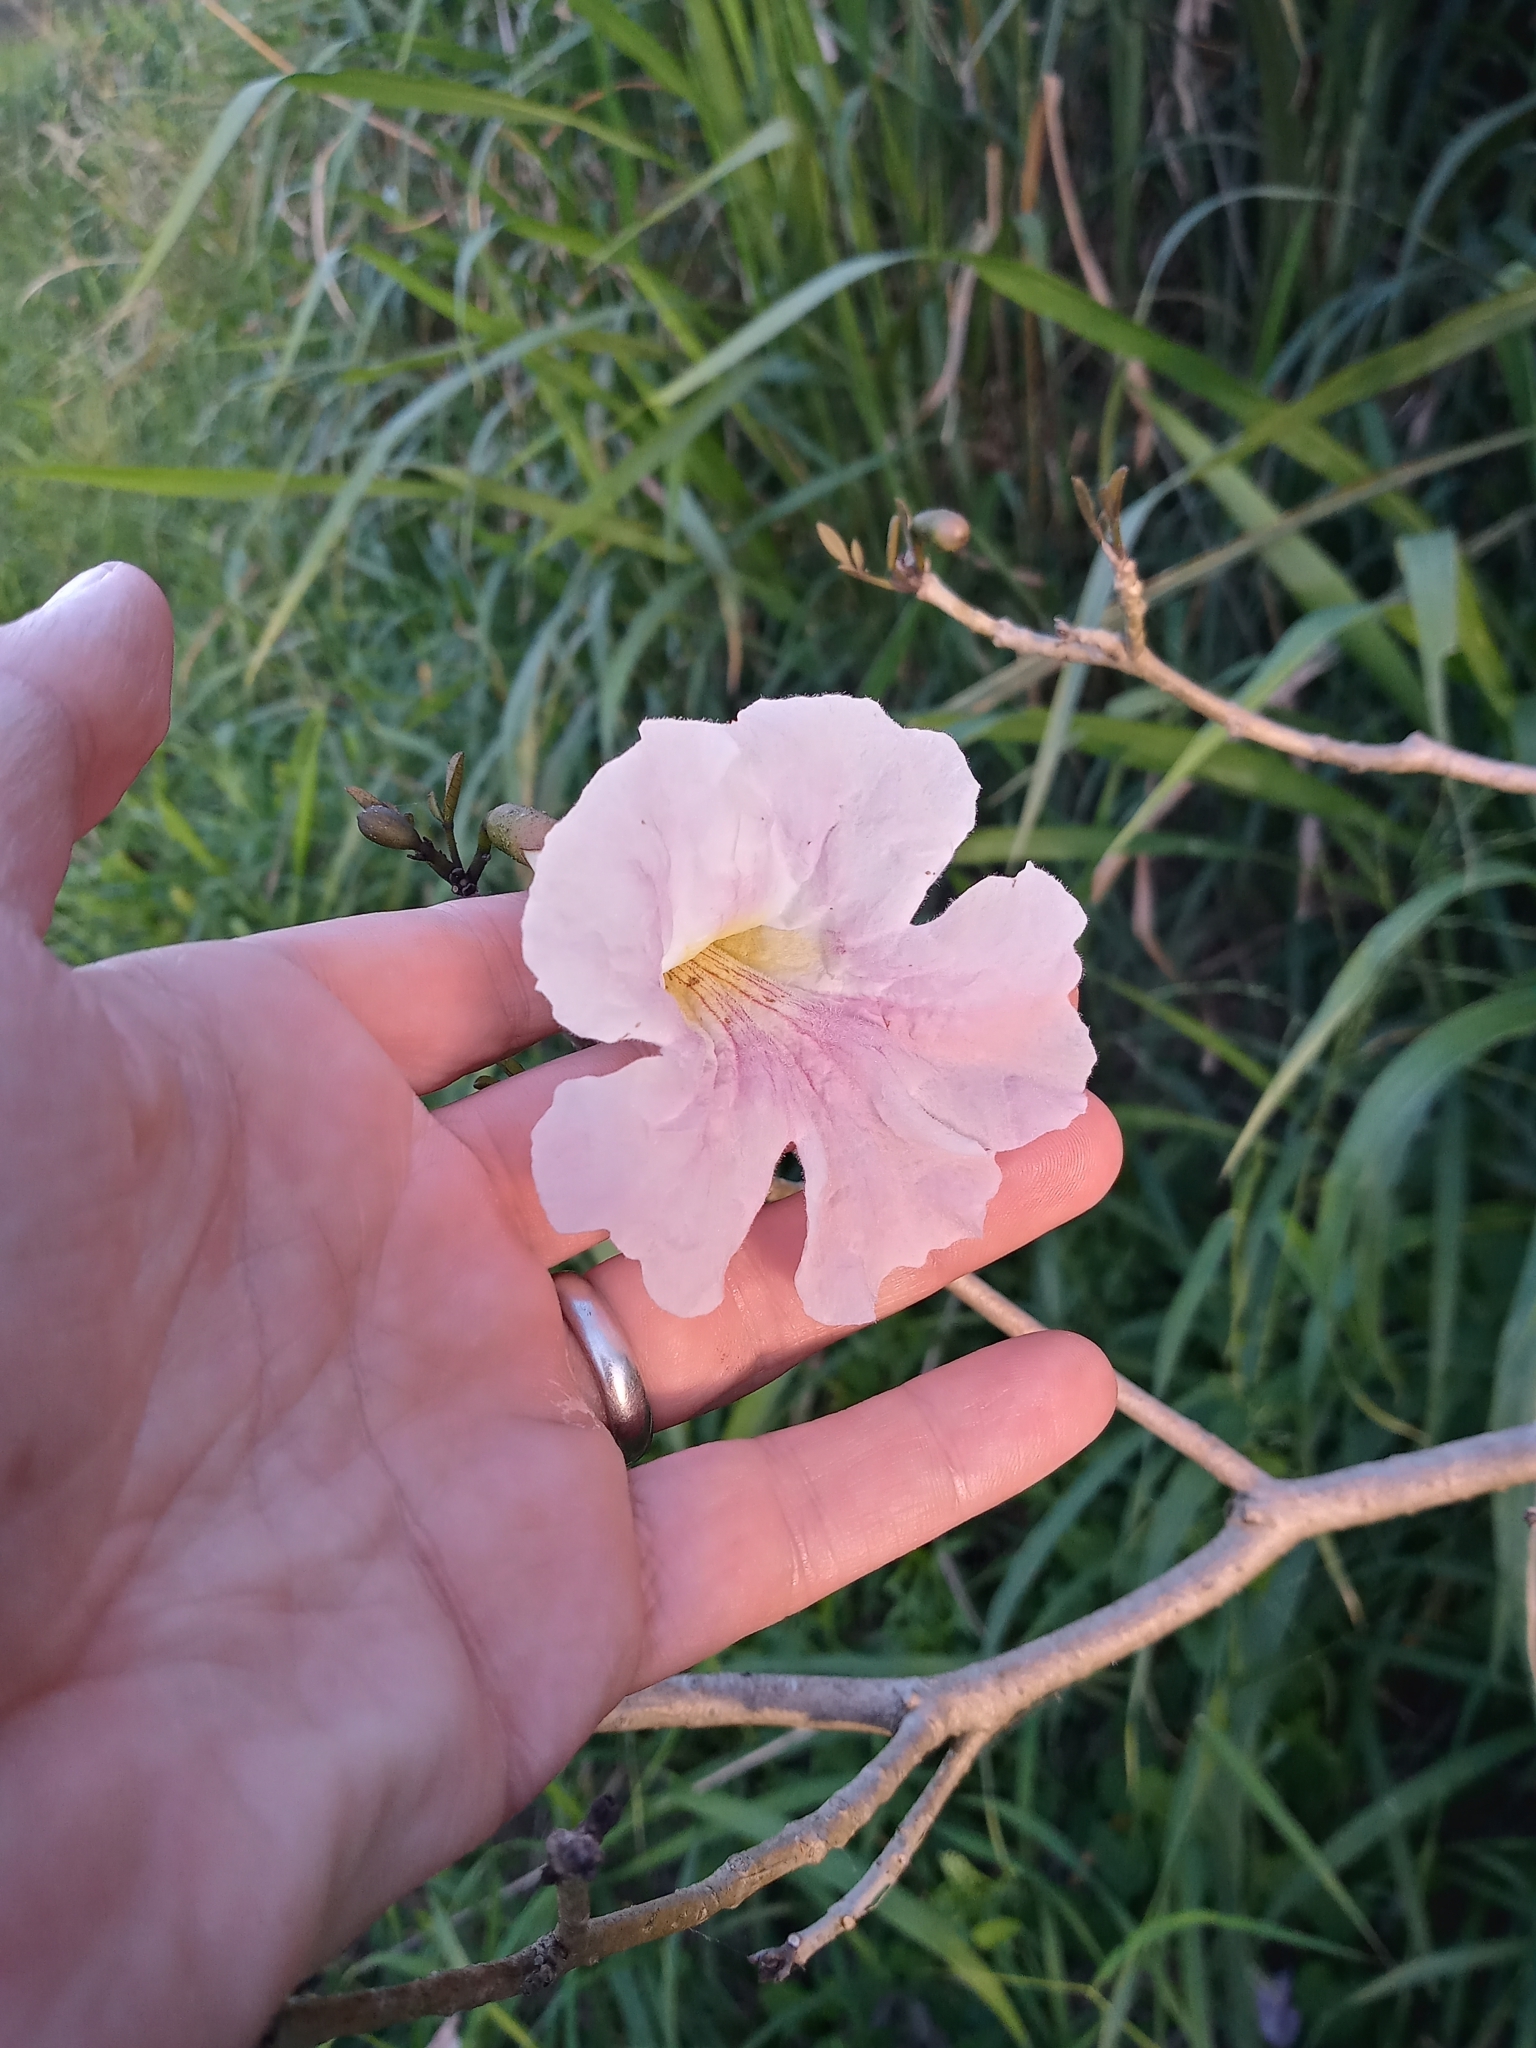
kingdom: Plantae
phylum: Tracheophyta
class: Magnoliopsida
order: Lamiales
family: Bignoniaceae
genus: Tabebuia
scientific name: Tabebuia heterophylla
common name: White cedar
